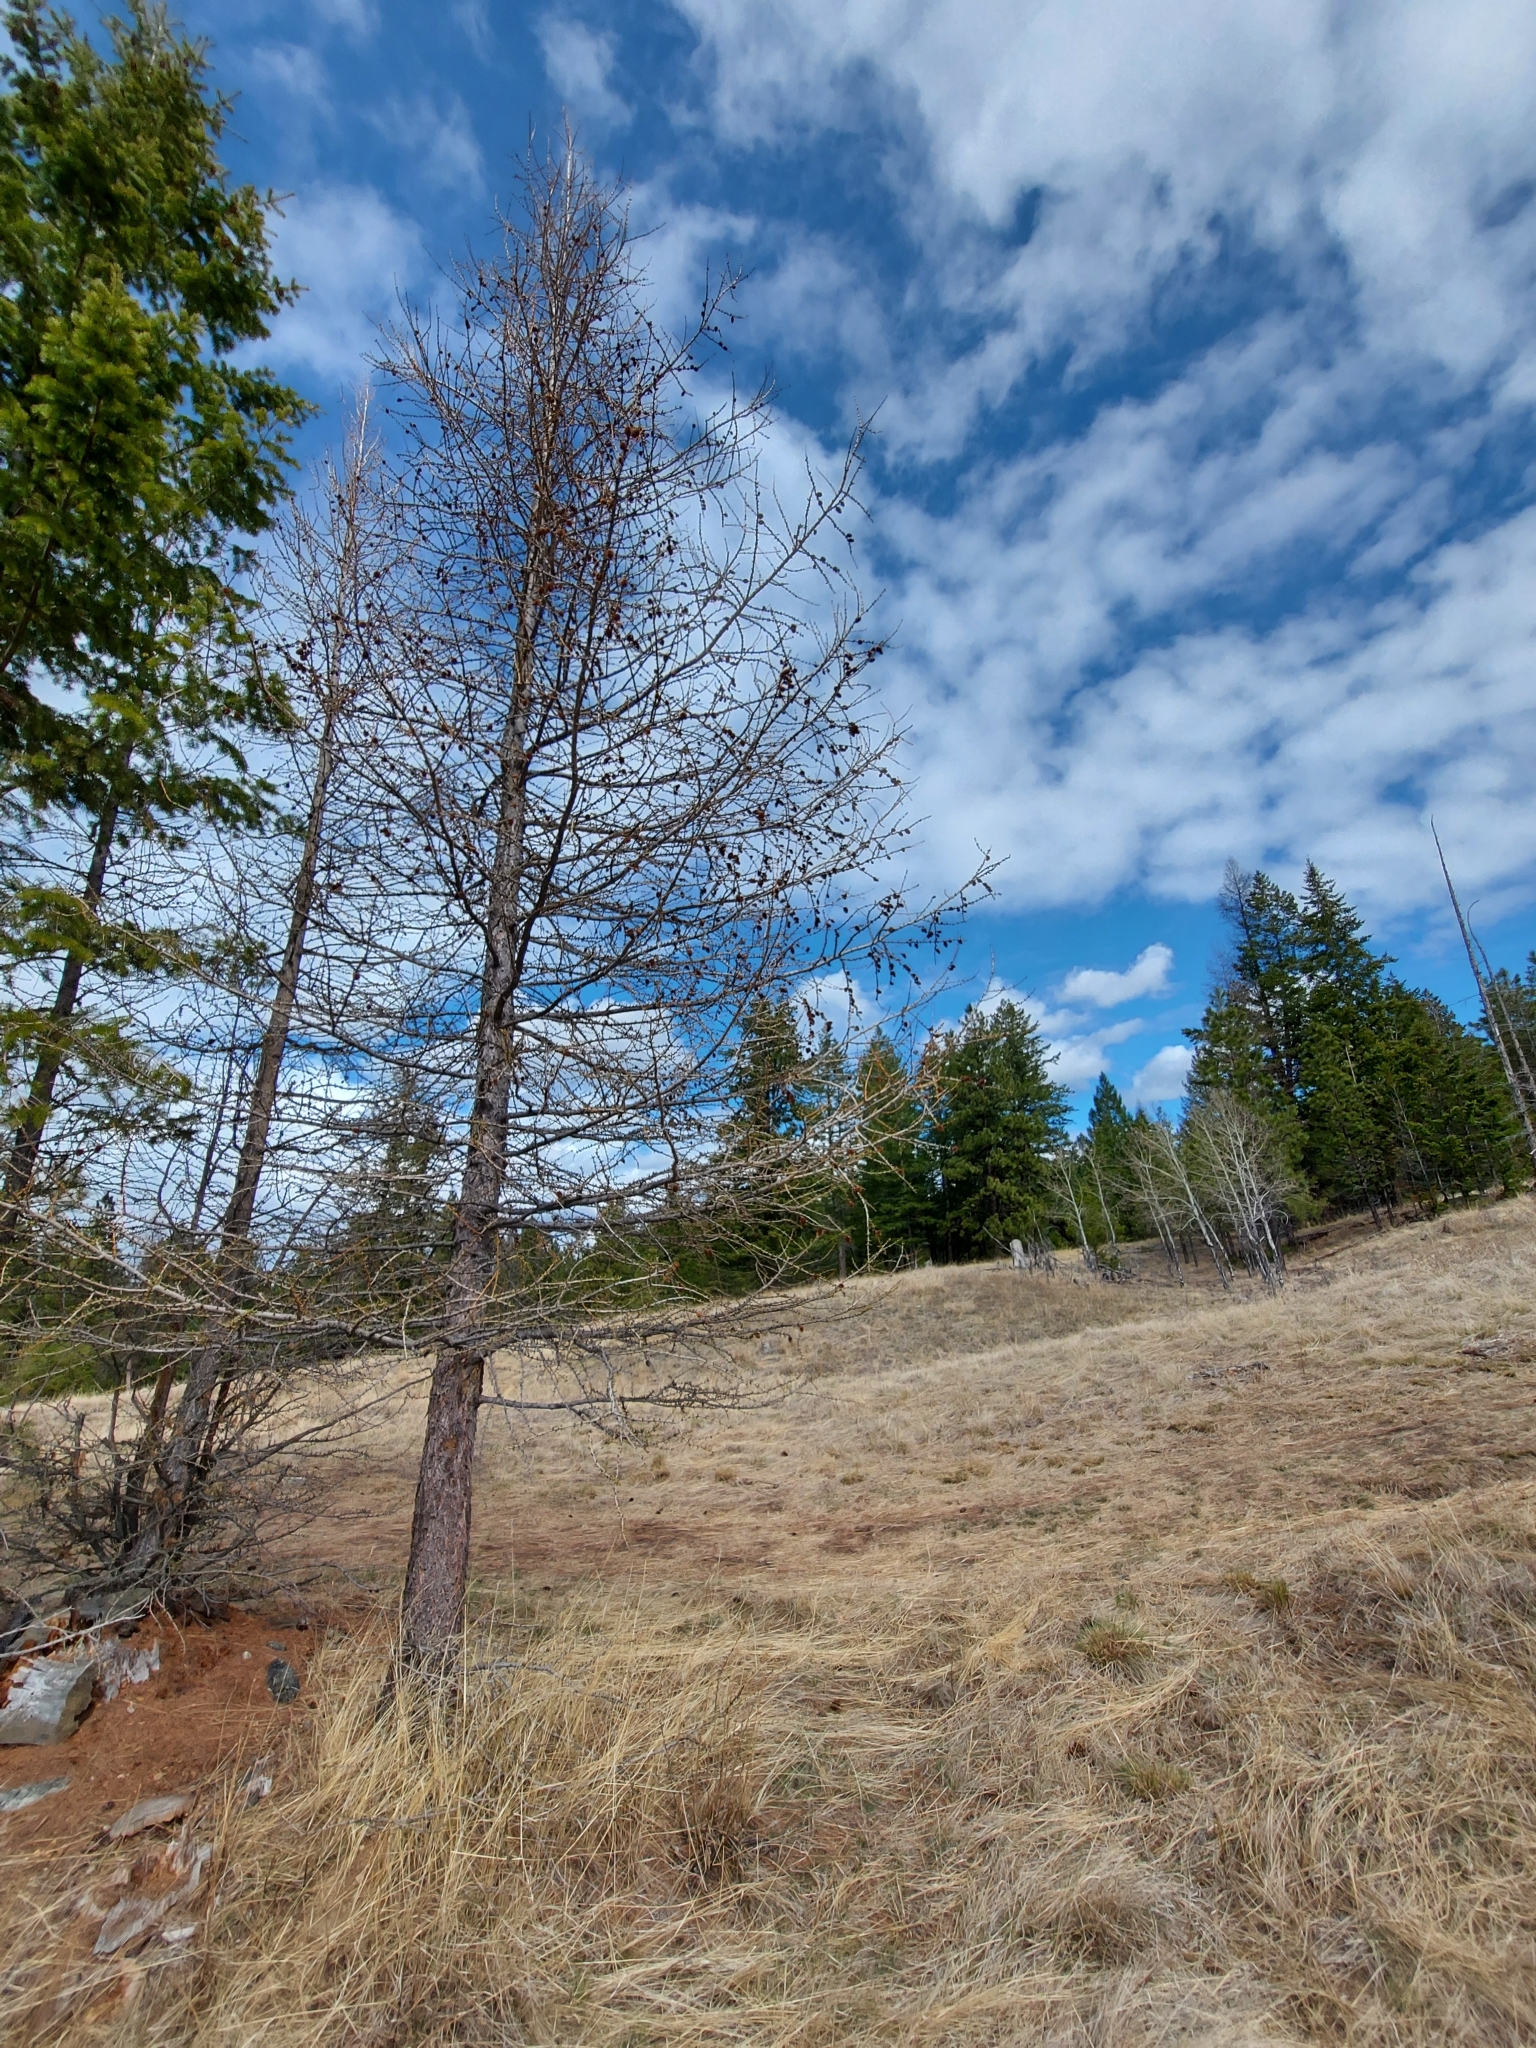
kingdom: Plantae
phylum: Tracheophyta
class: Pinopsida
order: Pinales
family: Pinaceae
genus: Larix
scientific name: Larix occidentalis
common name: Western larch
